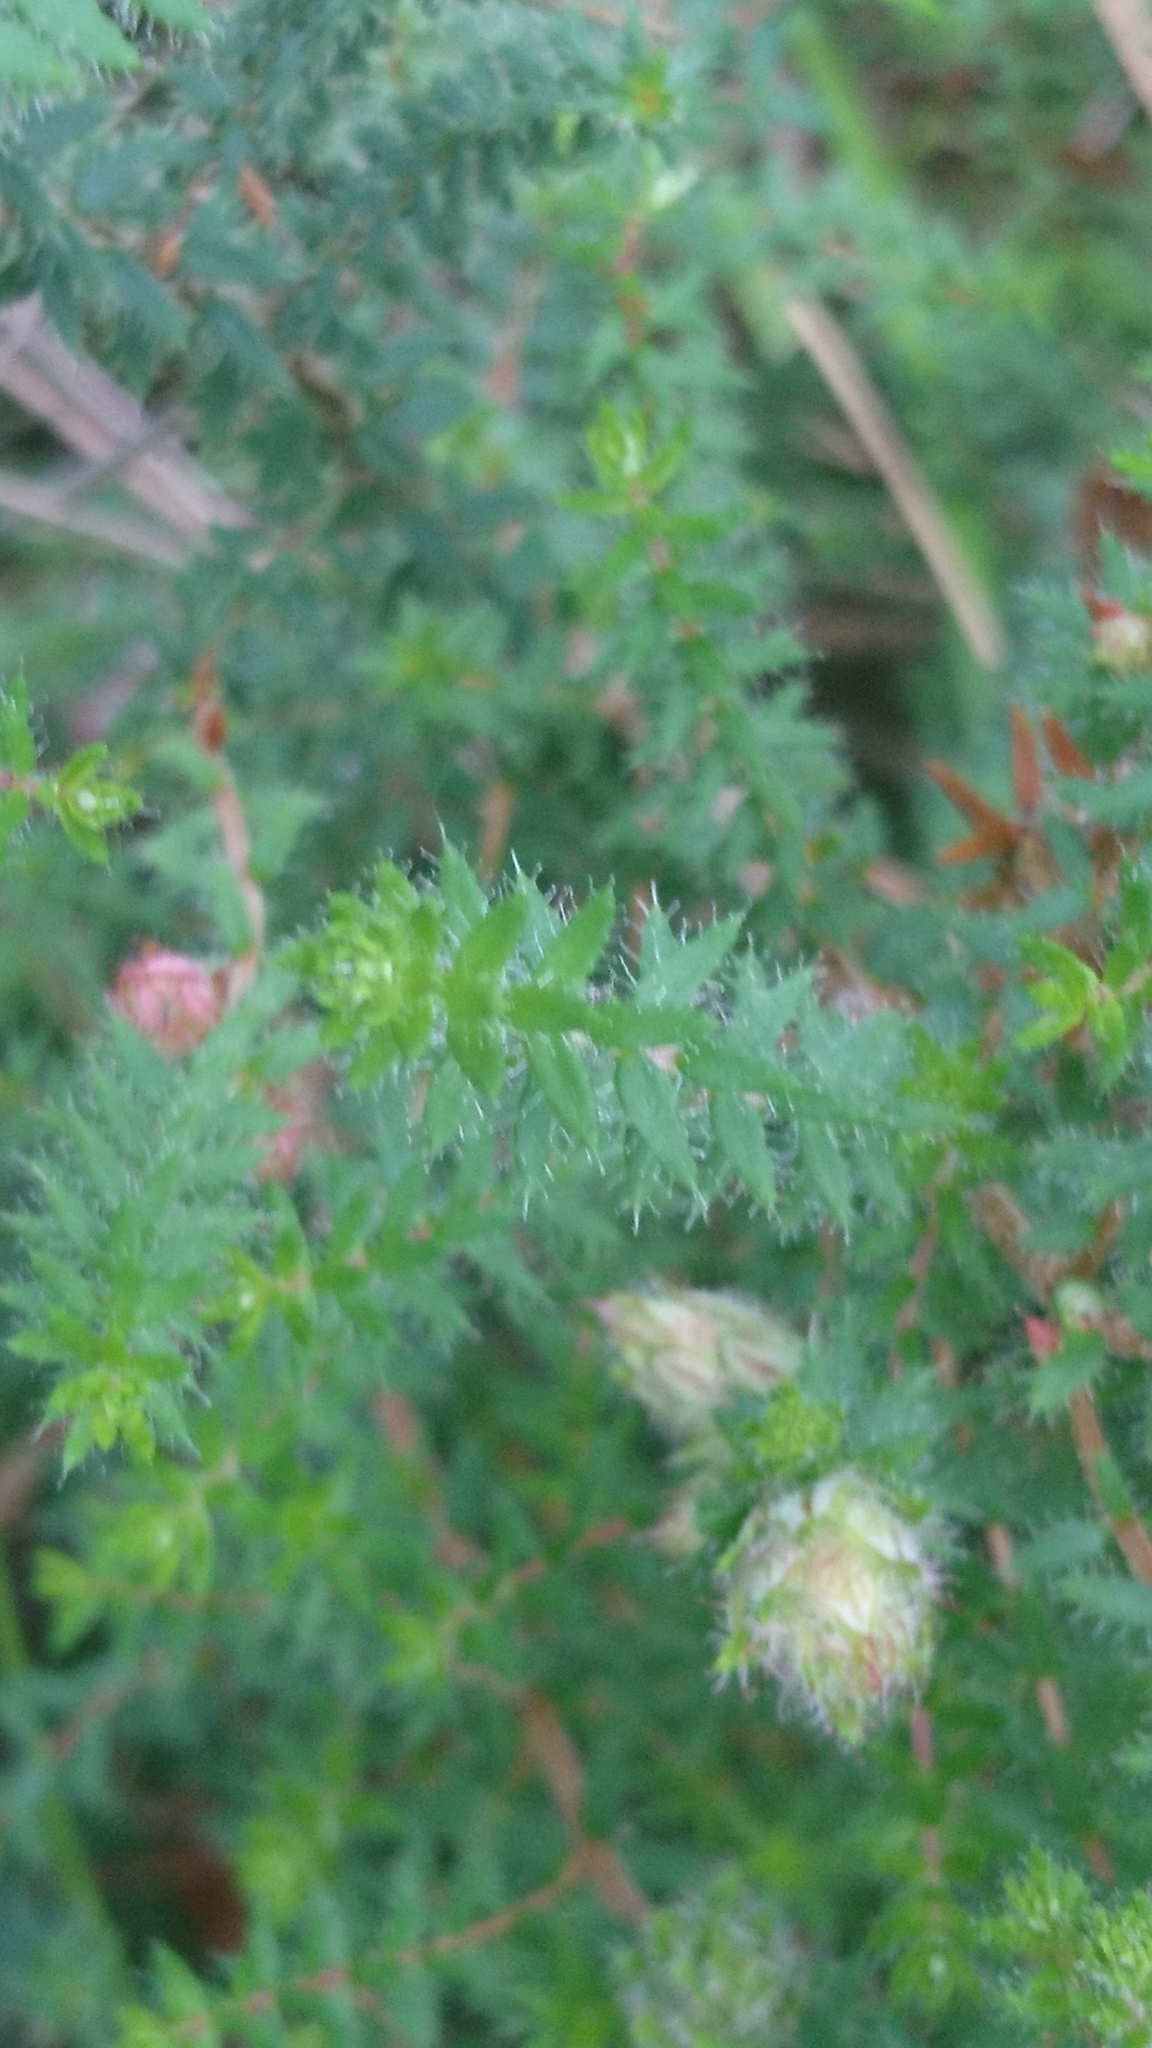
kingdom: Plantae
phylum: Tracheophyta
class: Magnoliopsida
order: Ericales
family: Ericaceae
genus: Erica
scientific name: Erica ciliaris
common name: Dorset heath
